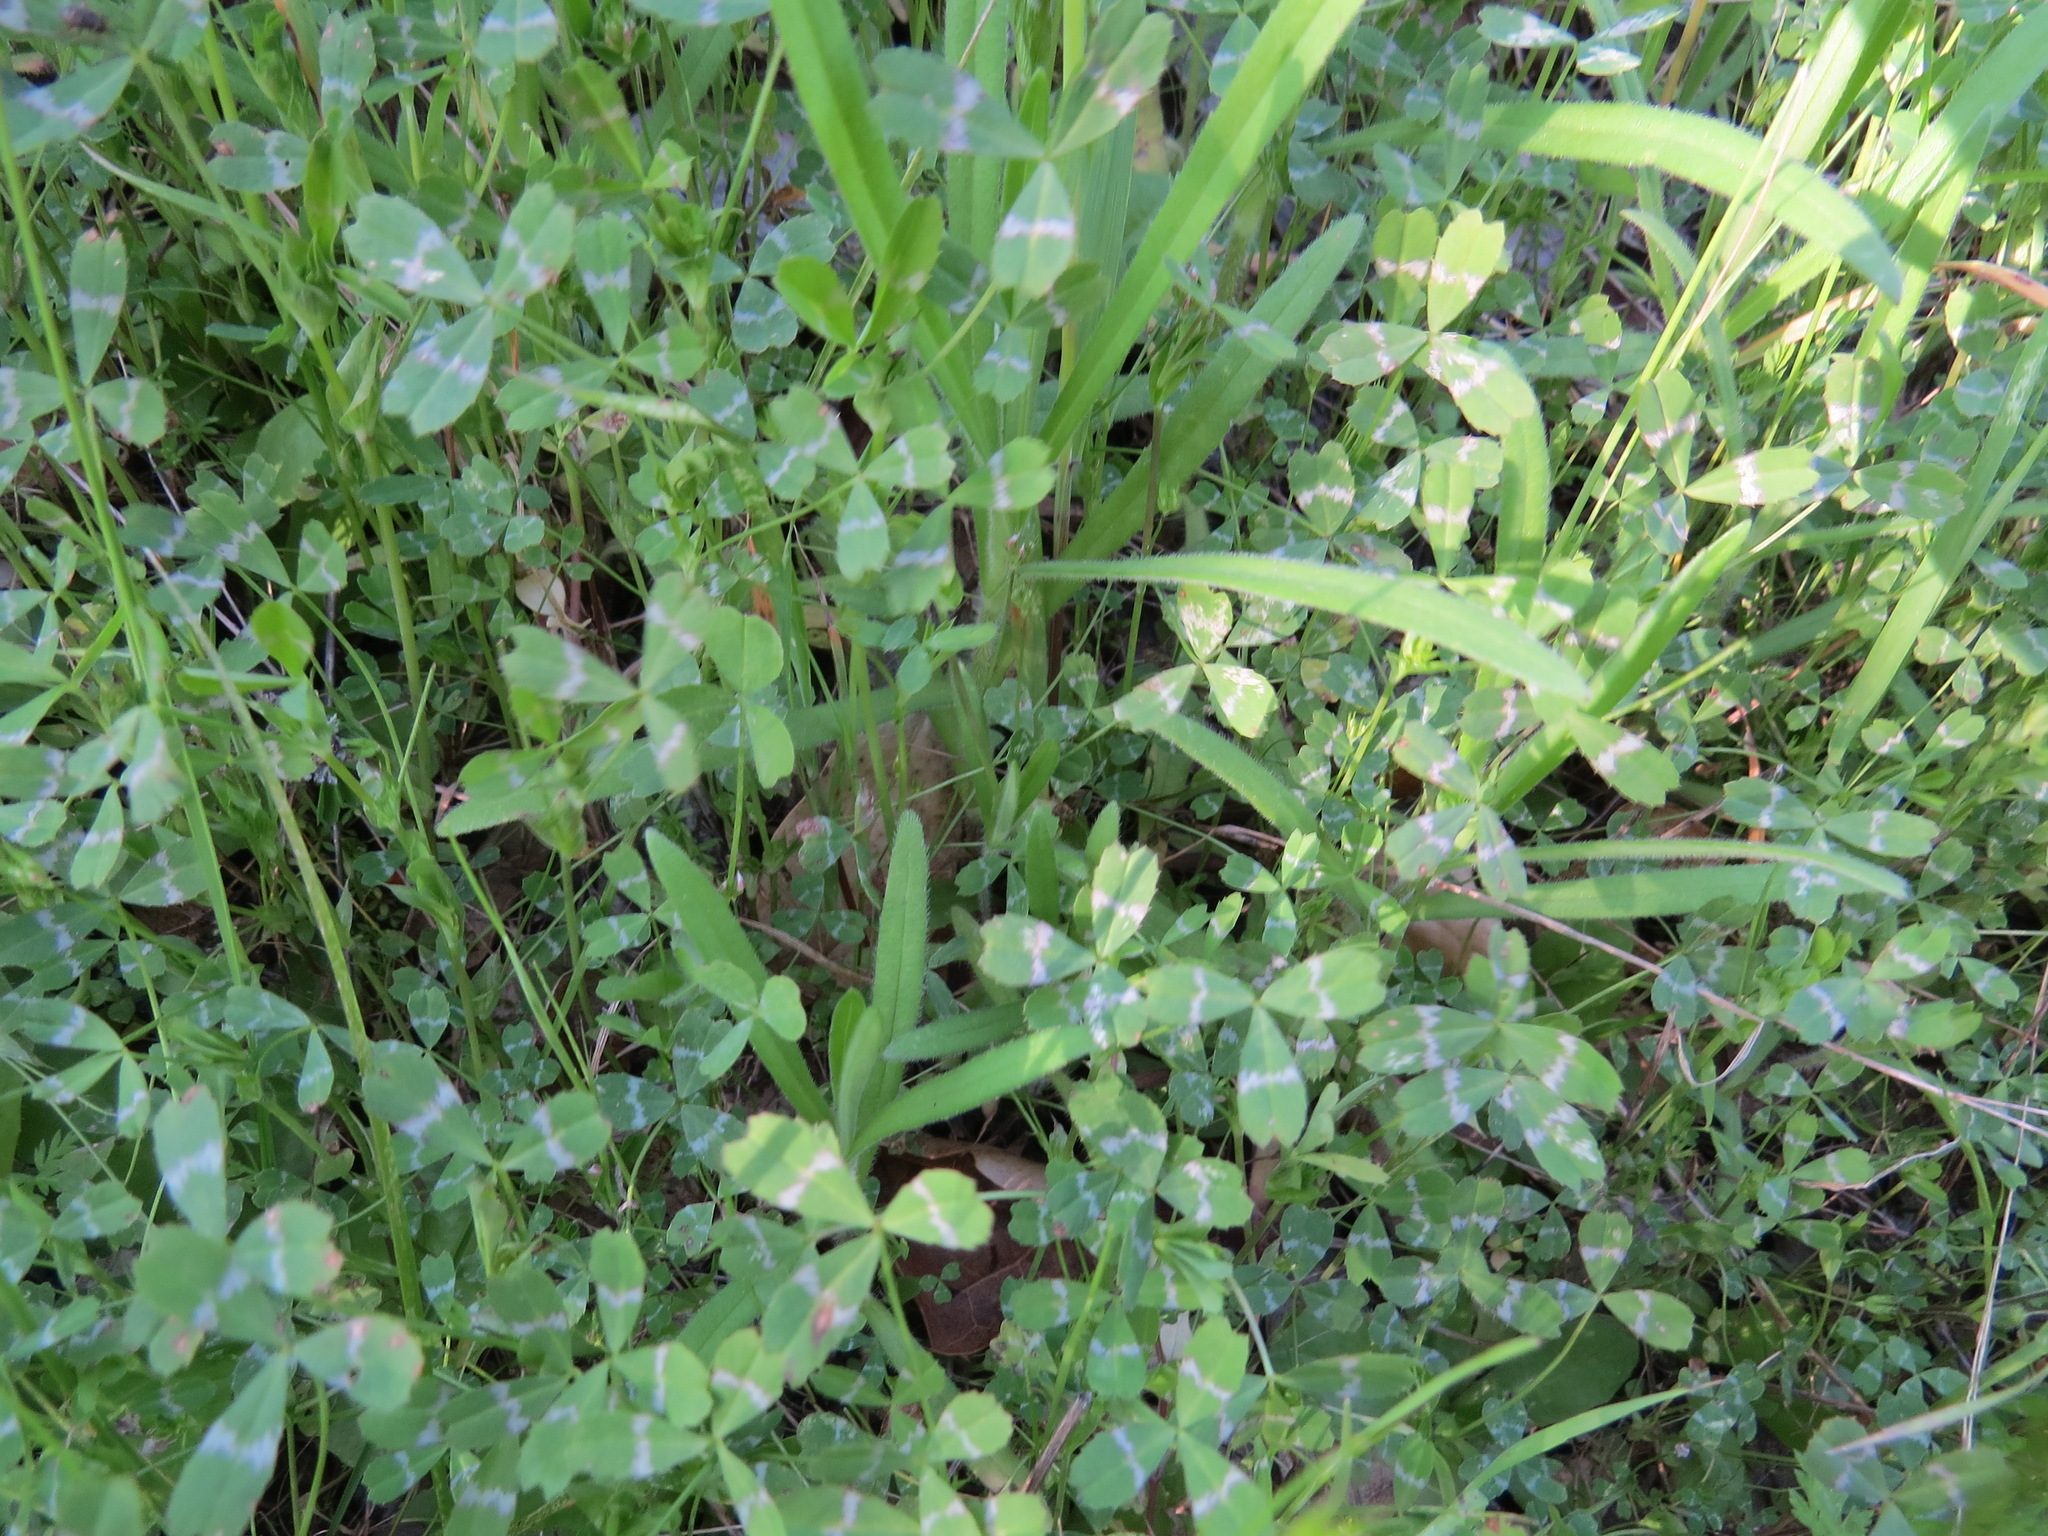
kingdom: Plantae
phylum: Tracheophyta
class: Magnoliopsida
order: Fabales
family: Fabaceae
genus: Trifolium
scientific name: Trifolium bifidum
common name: Notch-leaf clover
